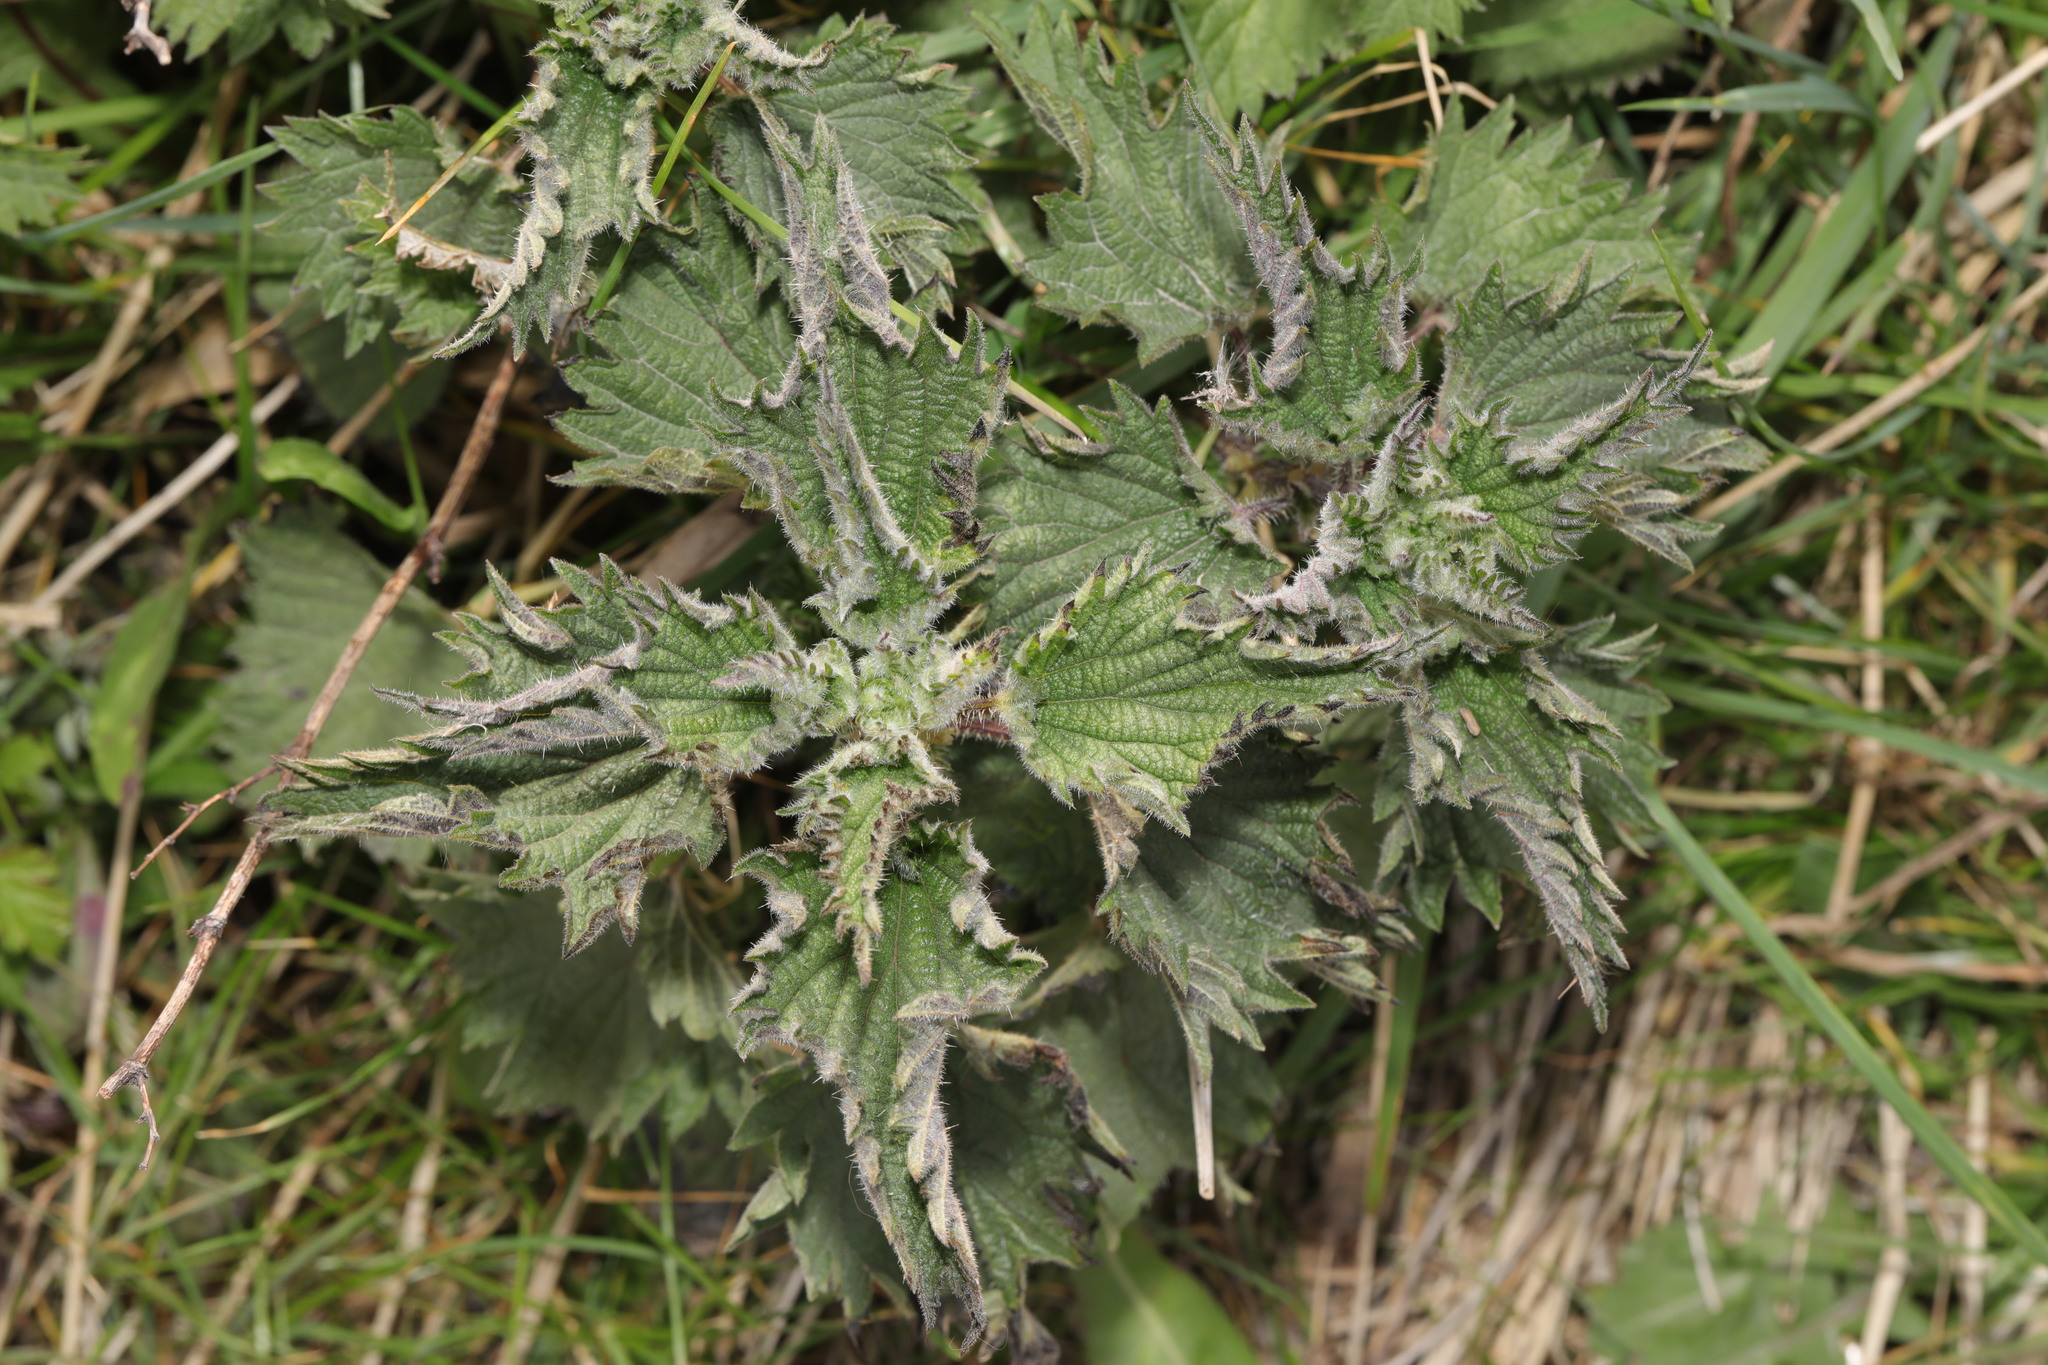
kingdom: Plantae
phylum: Tracheophyta
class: Magnoliopsida
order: Rosales
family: Urticaceae
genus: Urtica
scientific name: Urtica dioica
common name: Common nettle
